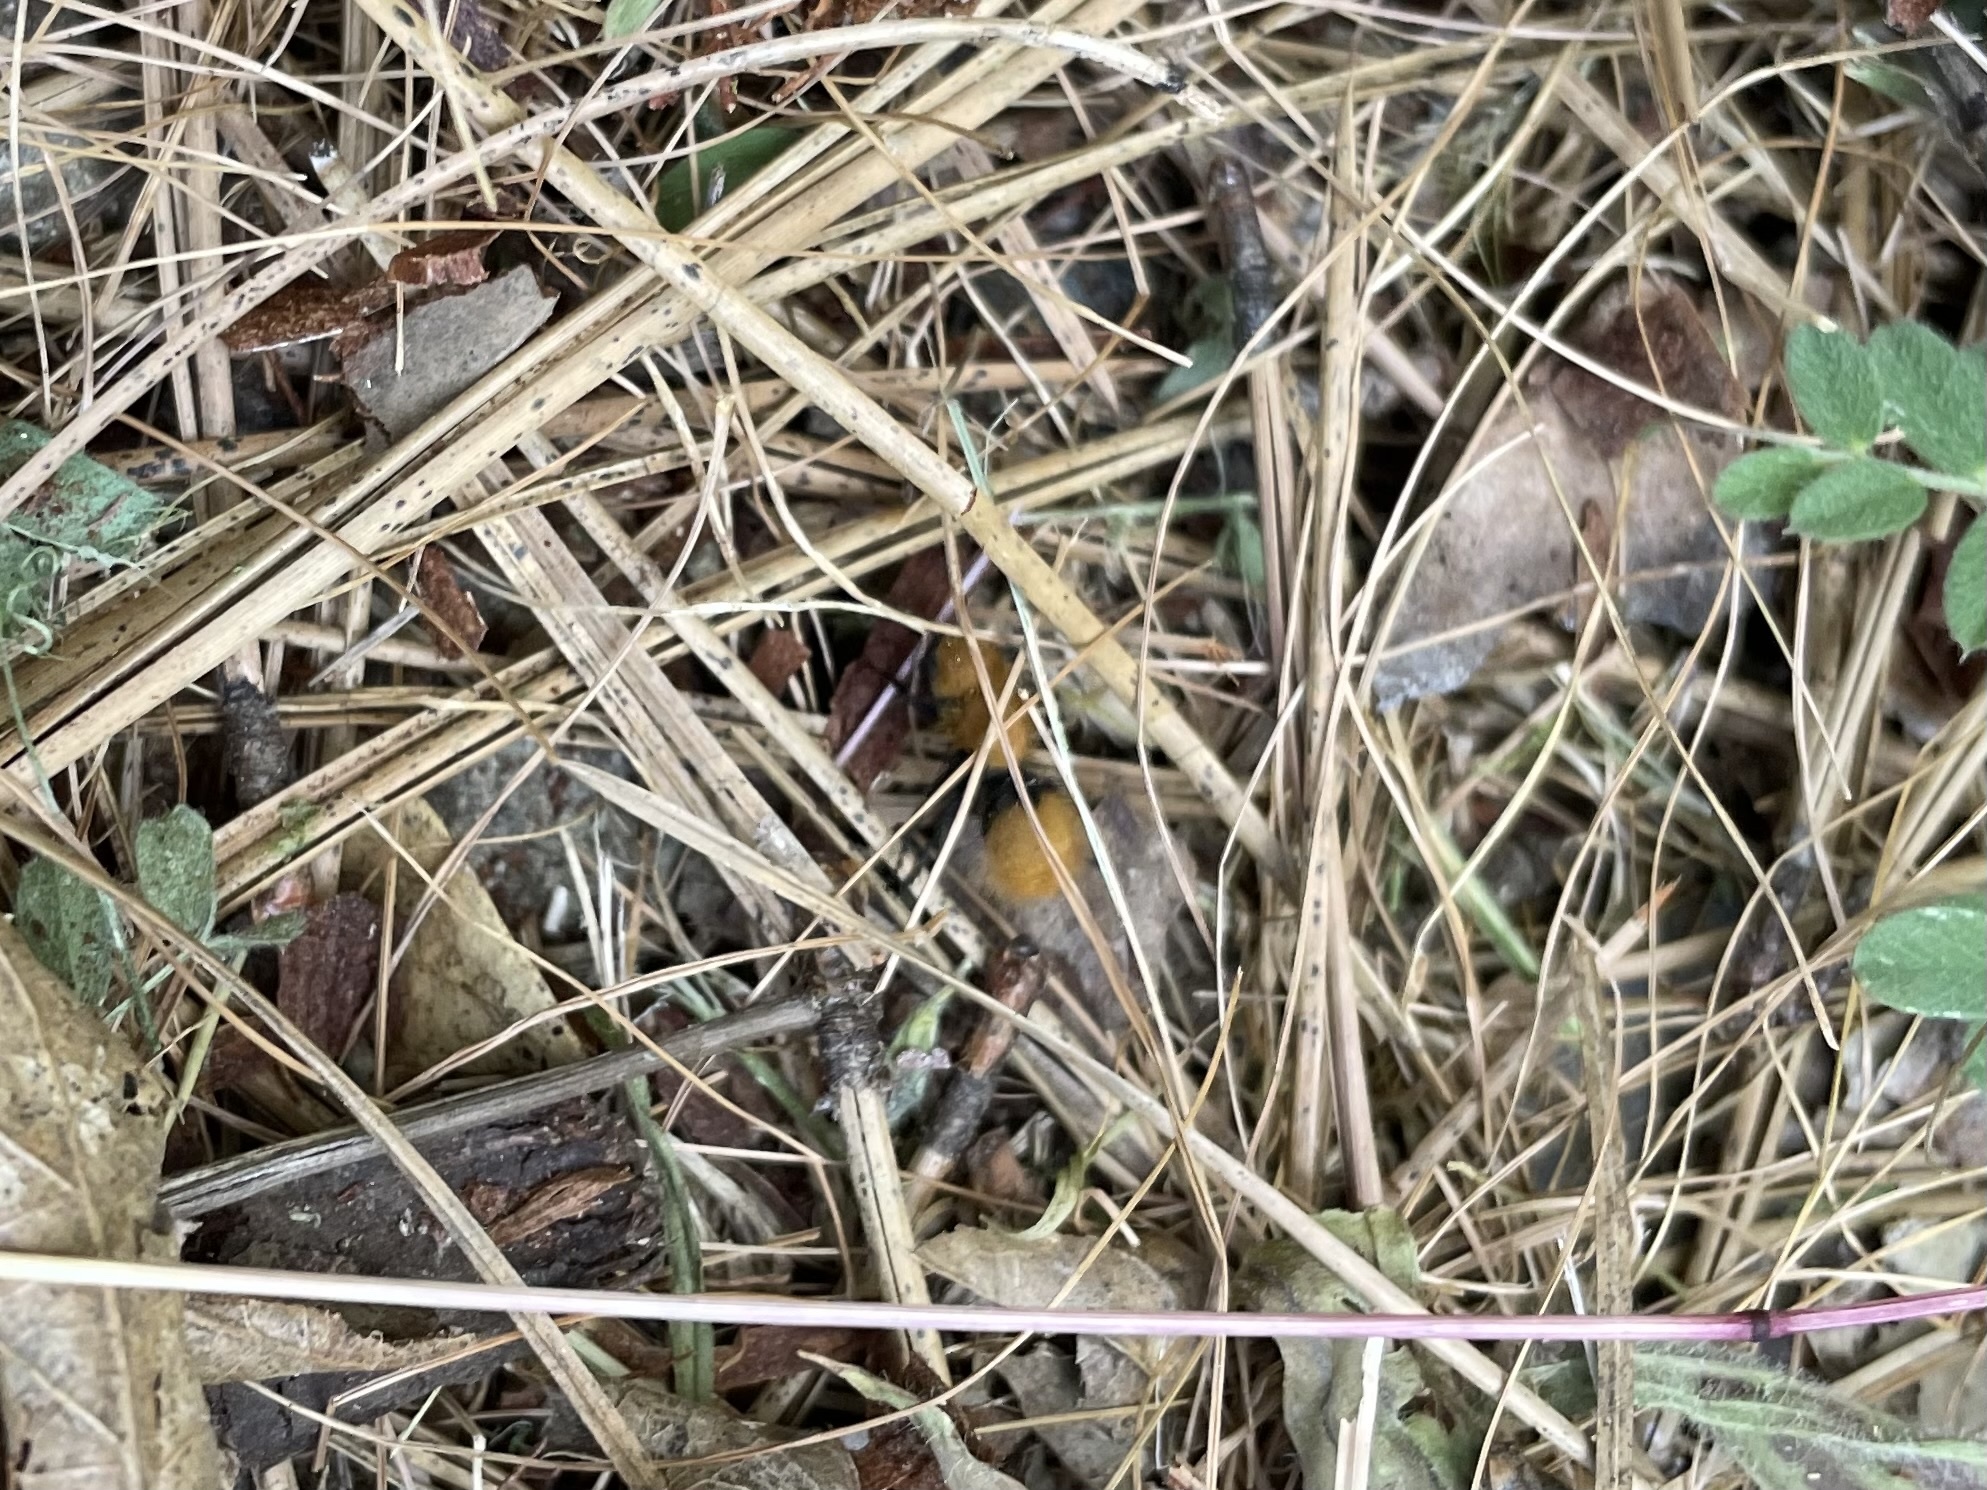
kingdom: Animalia
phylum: Arthropoda
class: Insecta
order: Hymenoptera
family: Mutillidae
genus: Dasymutilla
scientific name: Dasymutilla
